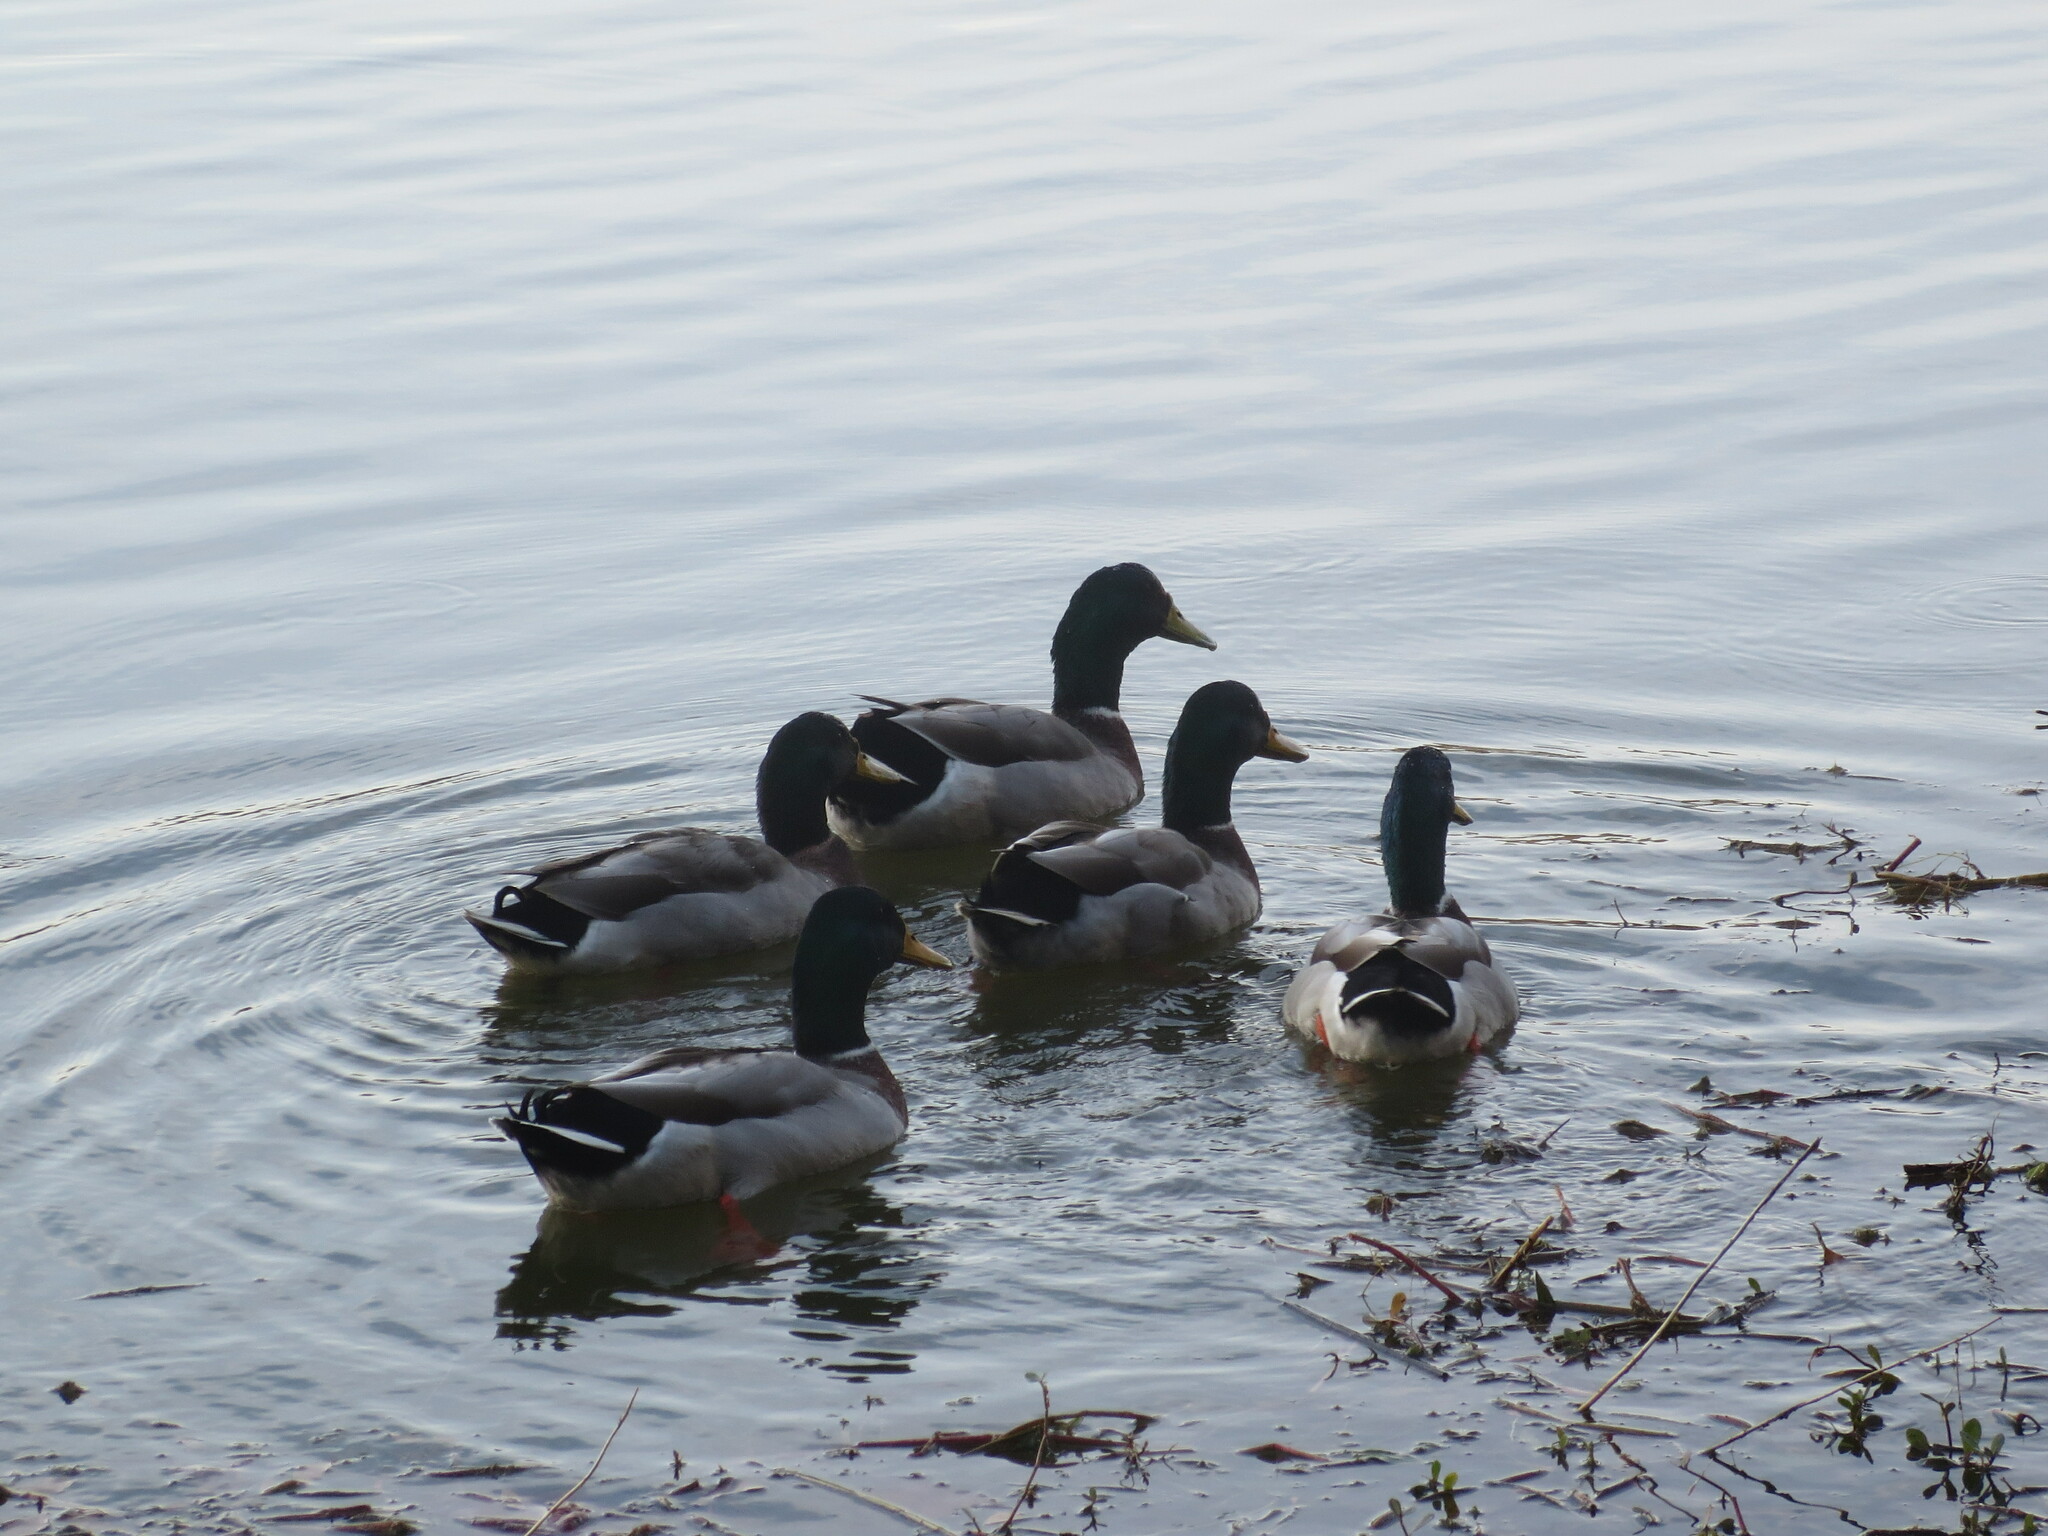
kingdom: Animalia
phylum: Chordata
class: Aves
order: Anseriformes
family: Anatidae
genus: Anas
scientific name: Anas platyrhynchos
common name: Mallard
